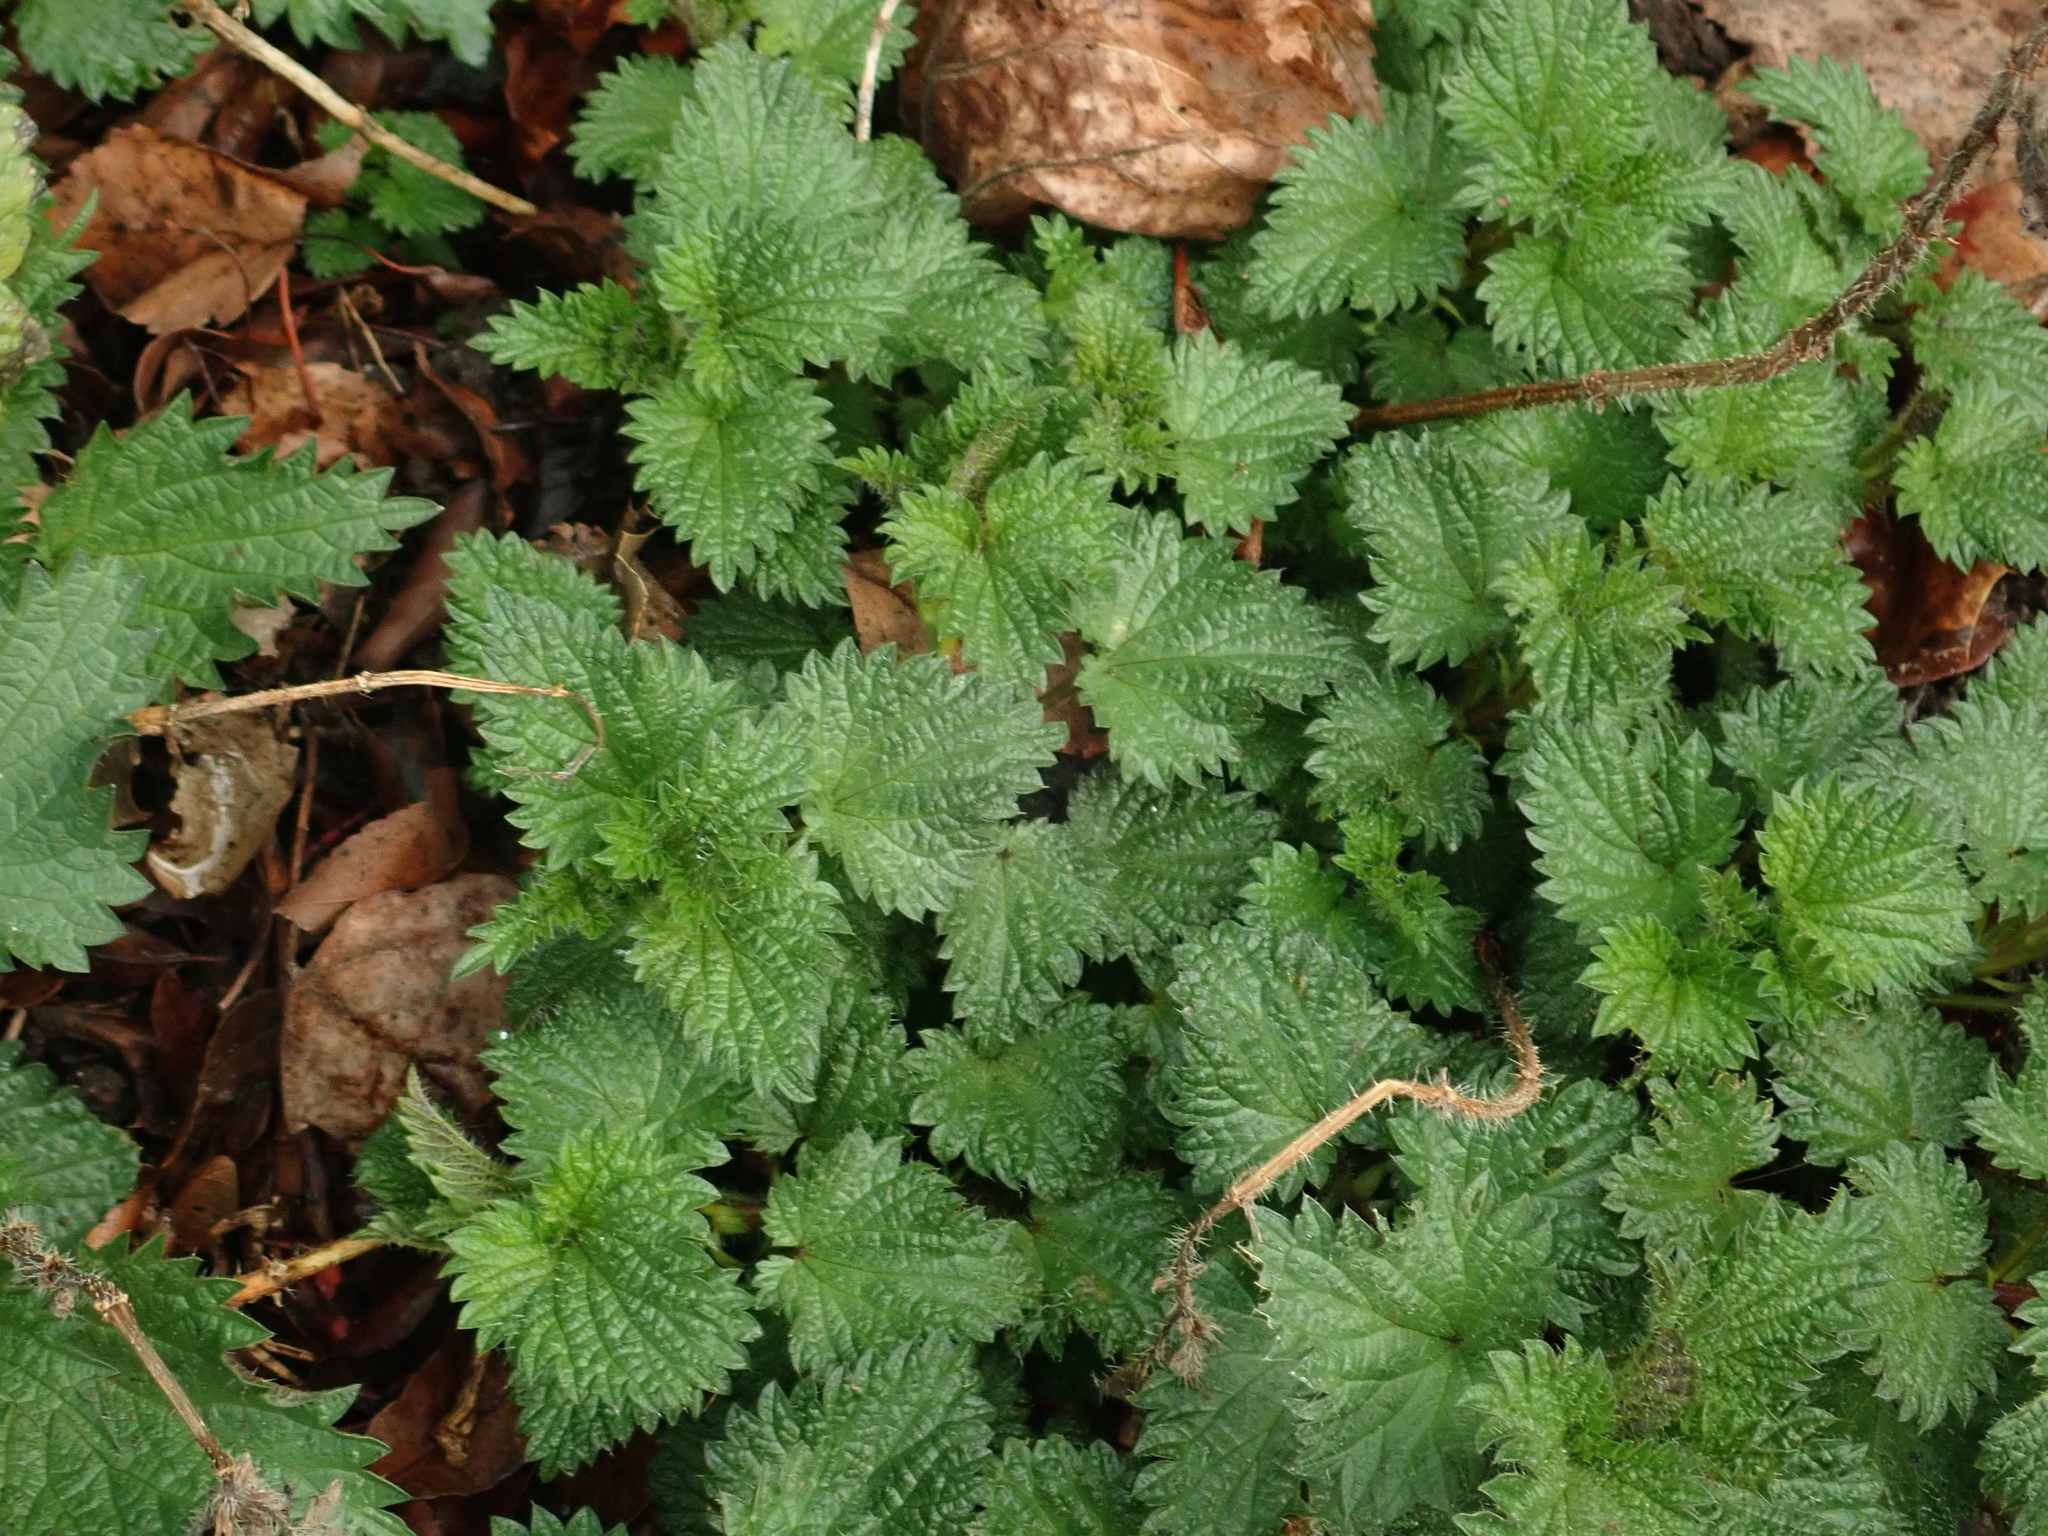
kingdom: Plantae
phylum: Tracheophyta
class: Magnoliopsida
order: Rosales
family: Urticaceae
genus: Urtica
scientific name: Urtica dioica
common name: Common nettle
